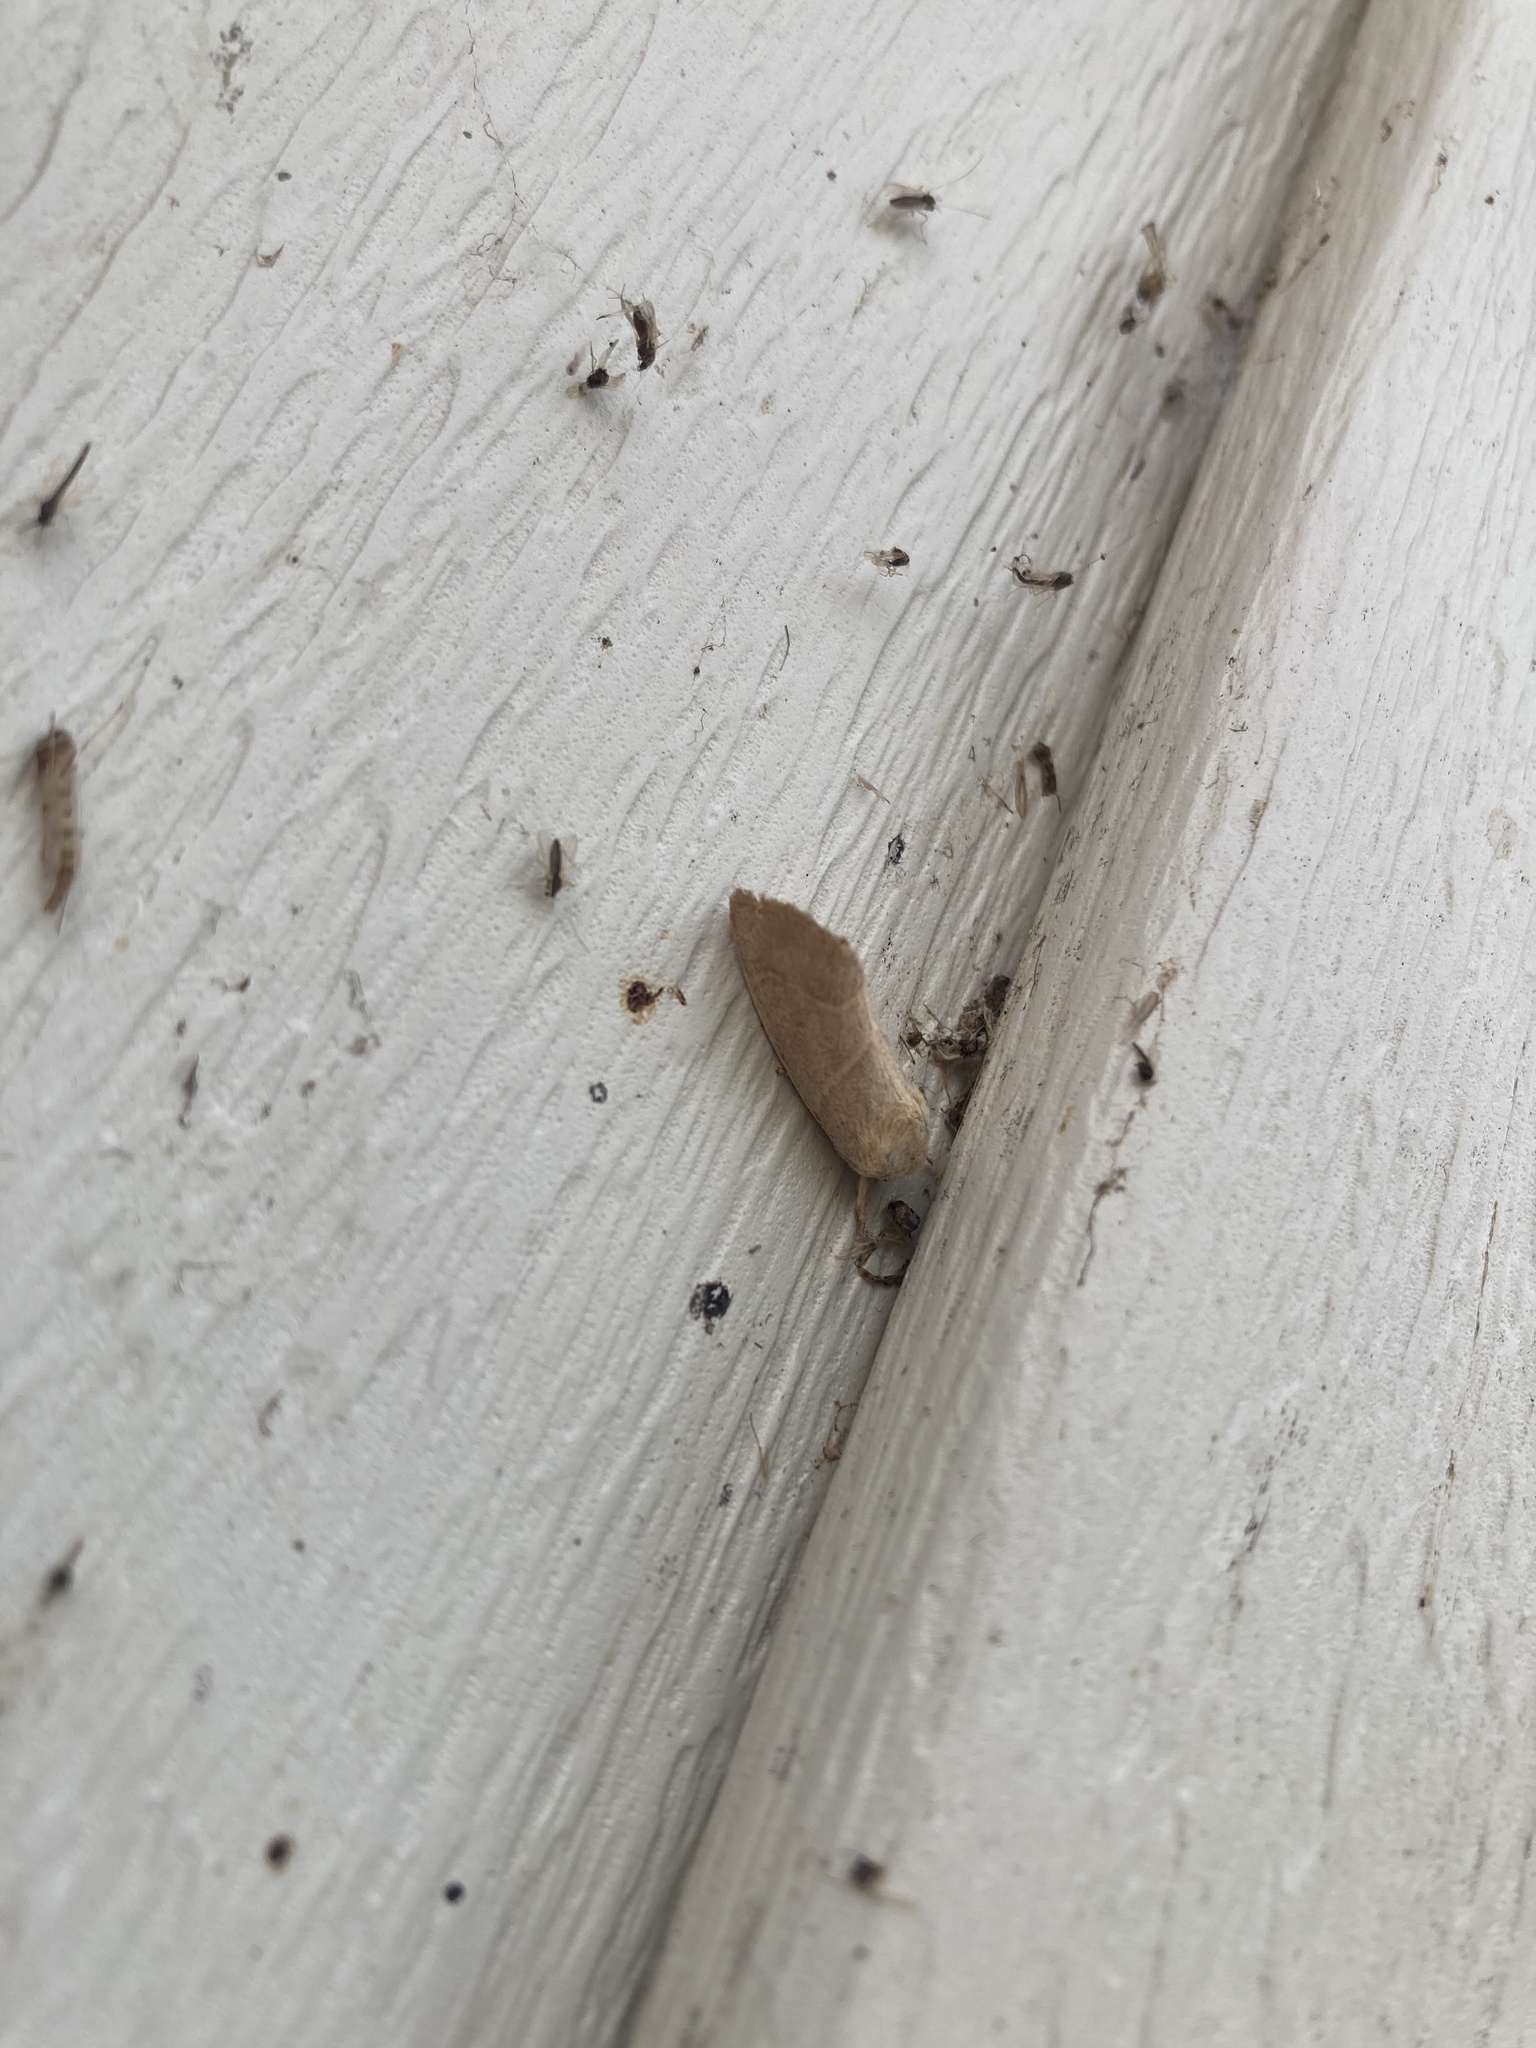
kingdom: Animalia
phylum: Arthropoda
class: Insecta
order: Lepidoptera
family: Noctuidae
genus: Cosmia
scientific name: Cosmia calami
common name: American dun-bar moth
